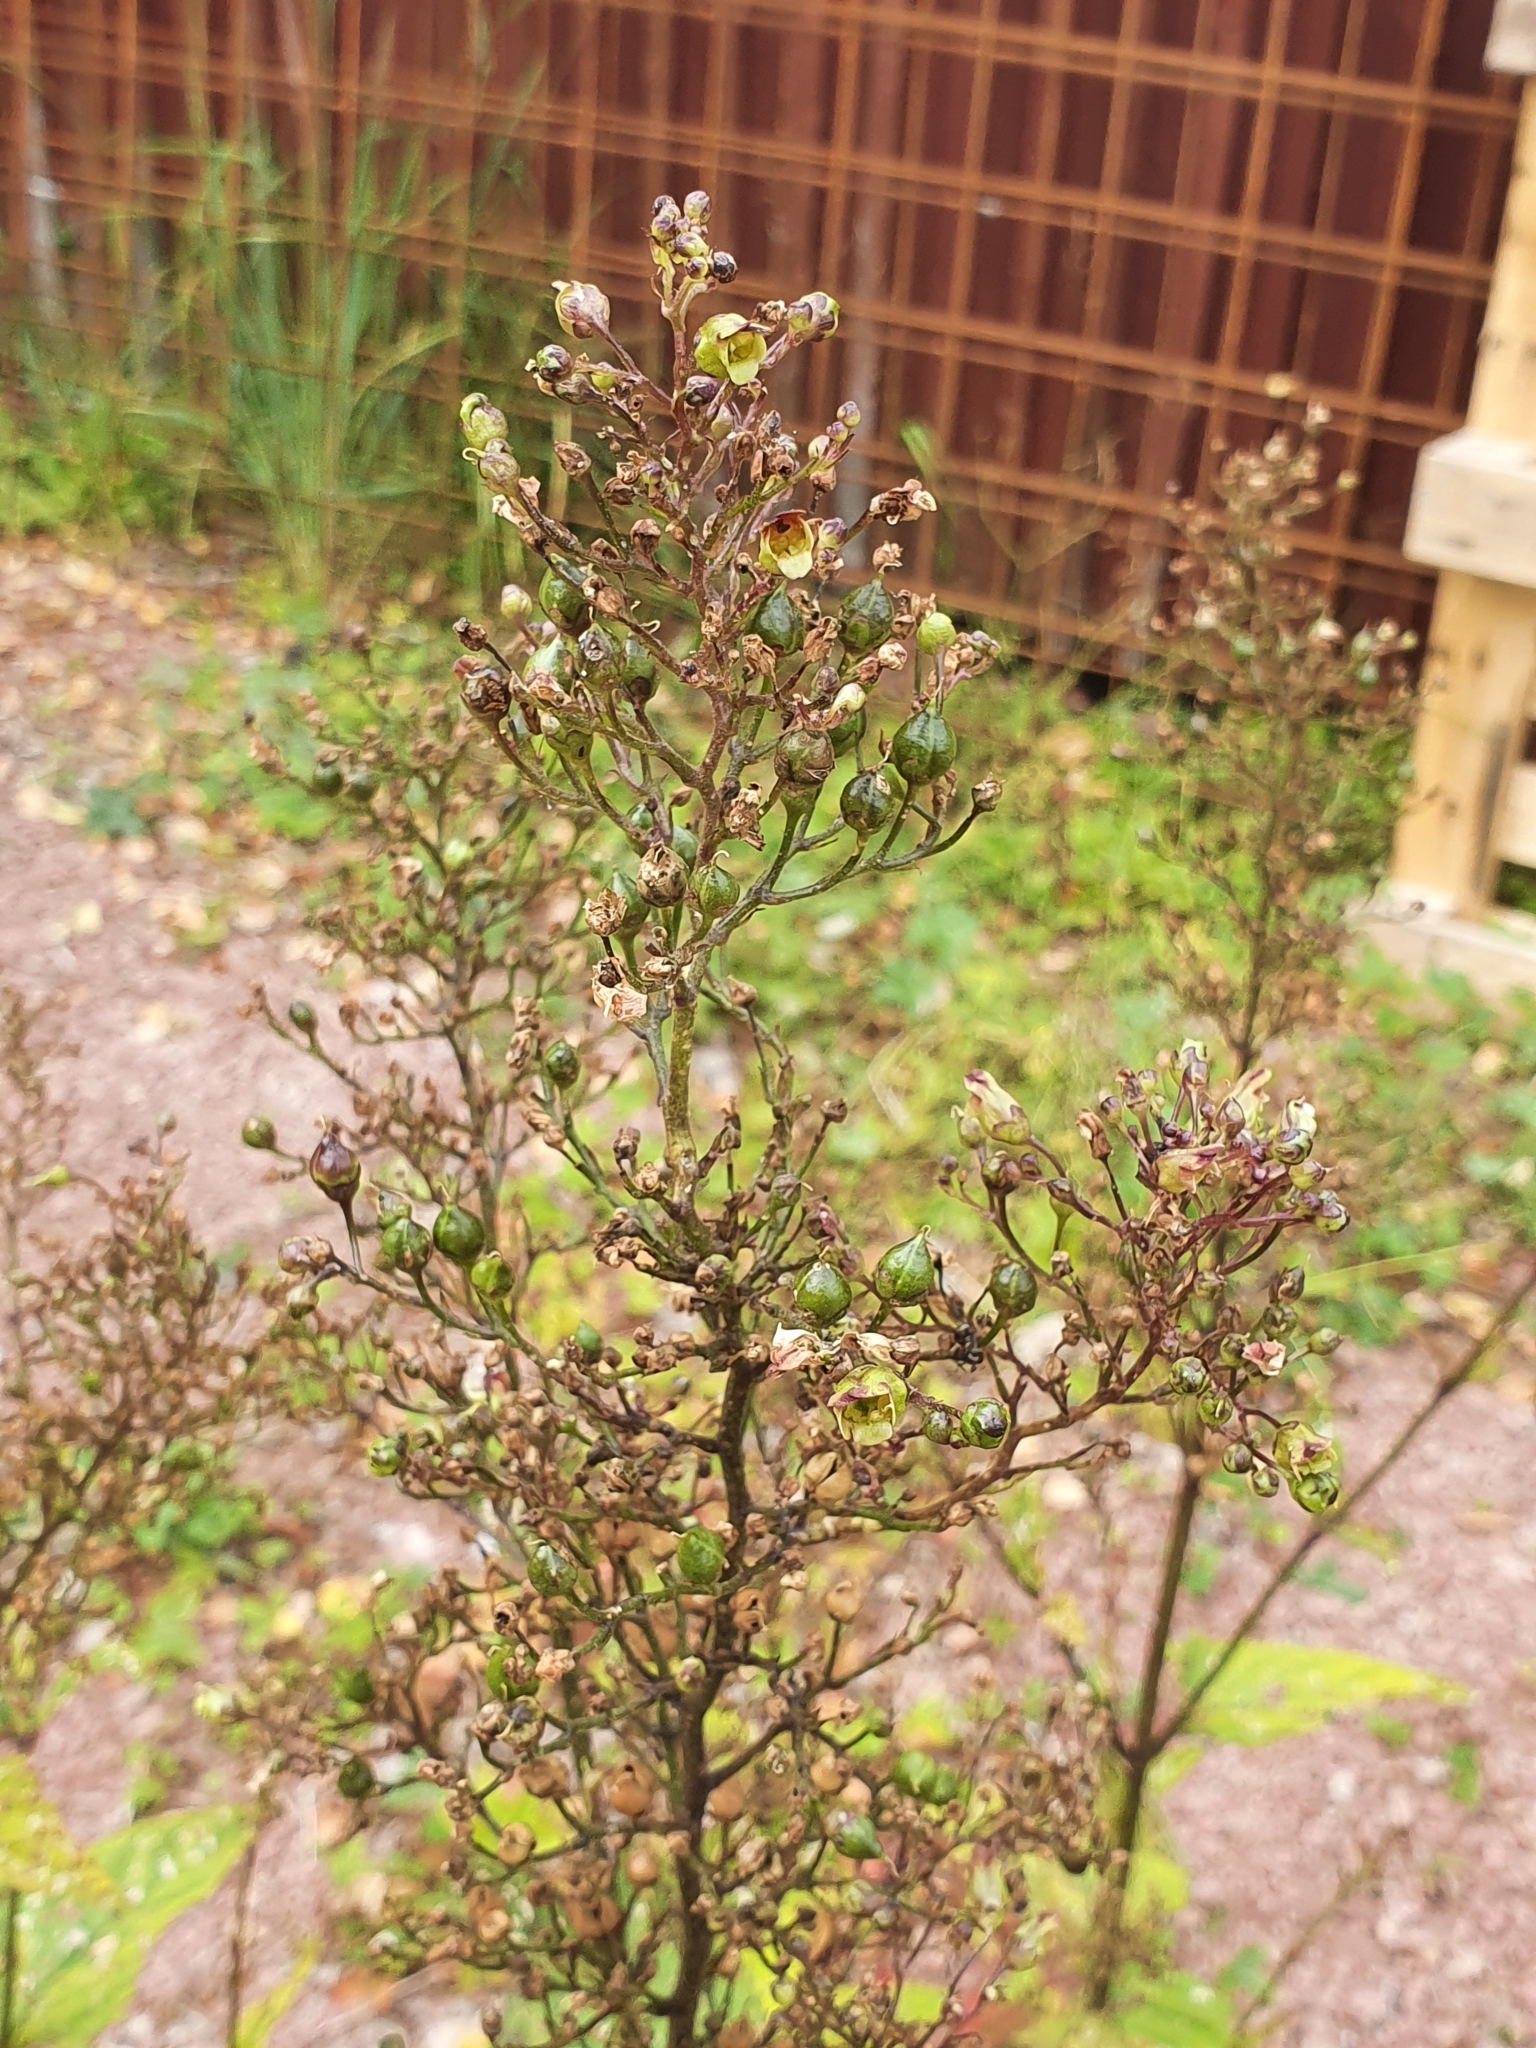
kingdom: Plantae
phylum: Tracheophyta
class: Magnoliopsida
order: Lamiales
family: Scrophulariaceae
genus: Scrophularia
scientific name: Scrophularia nodosa
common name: Common figwort
